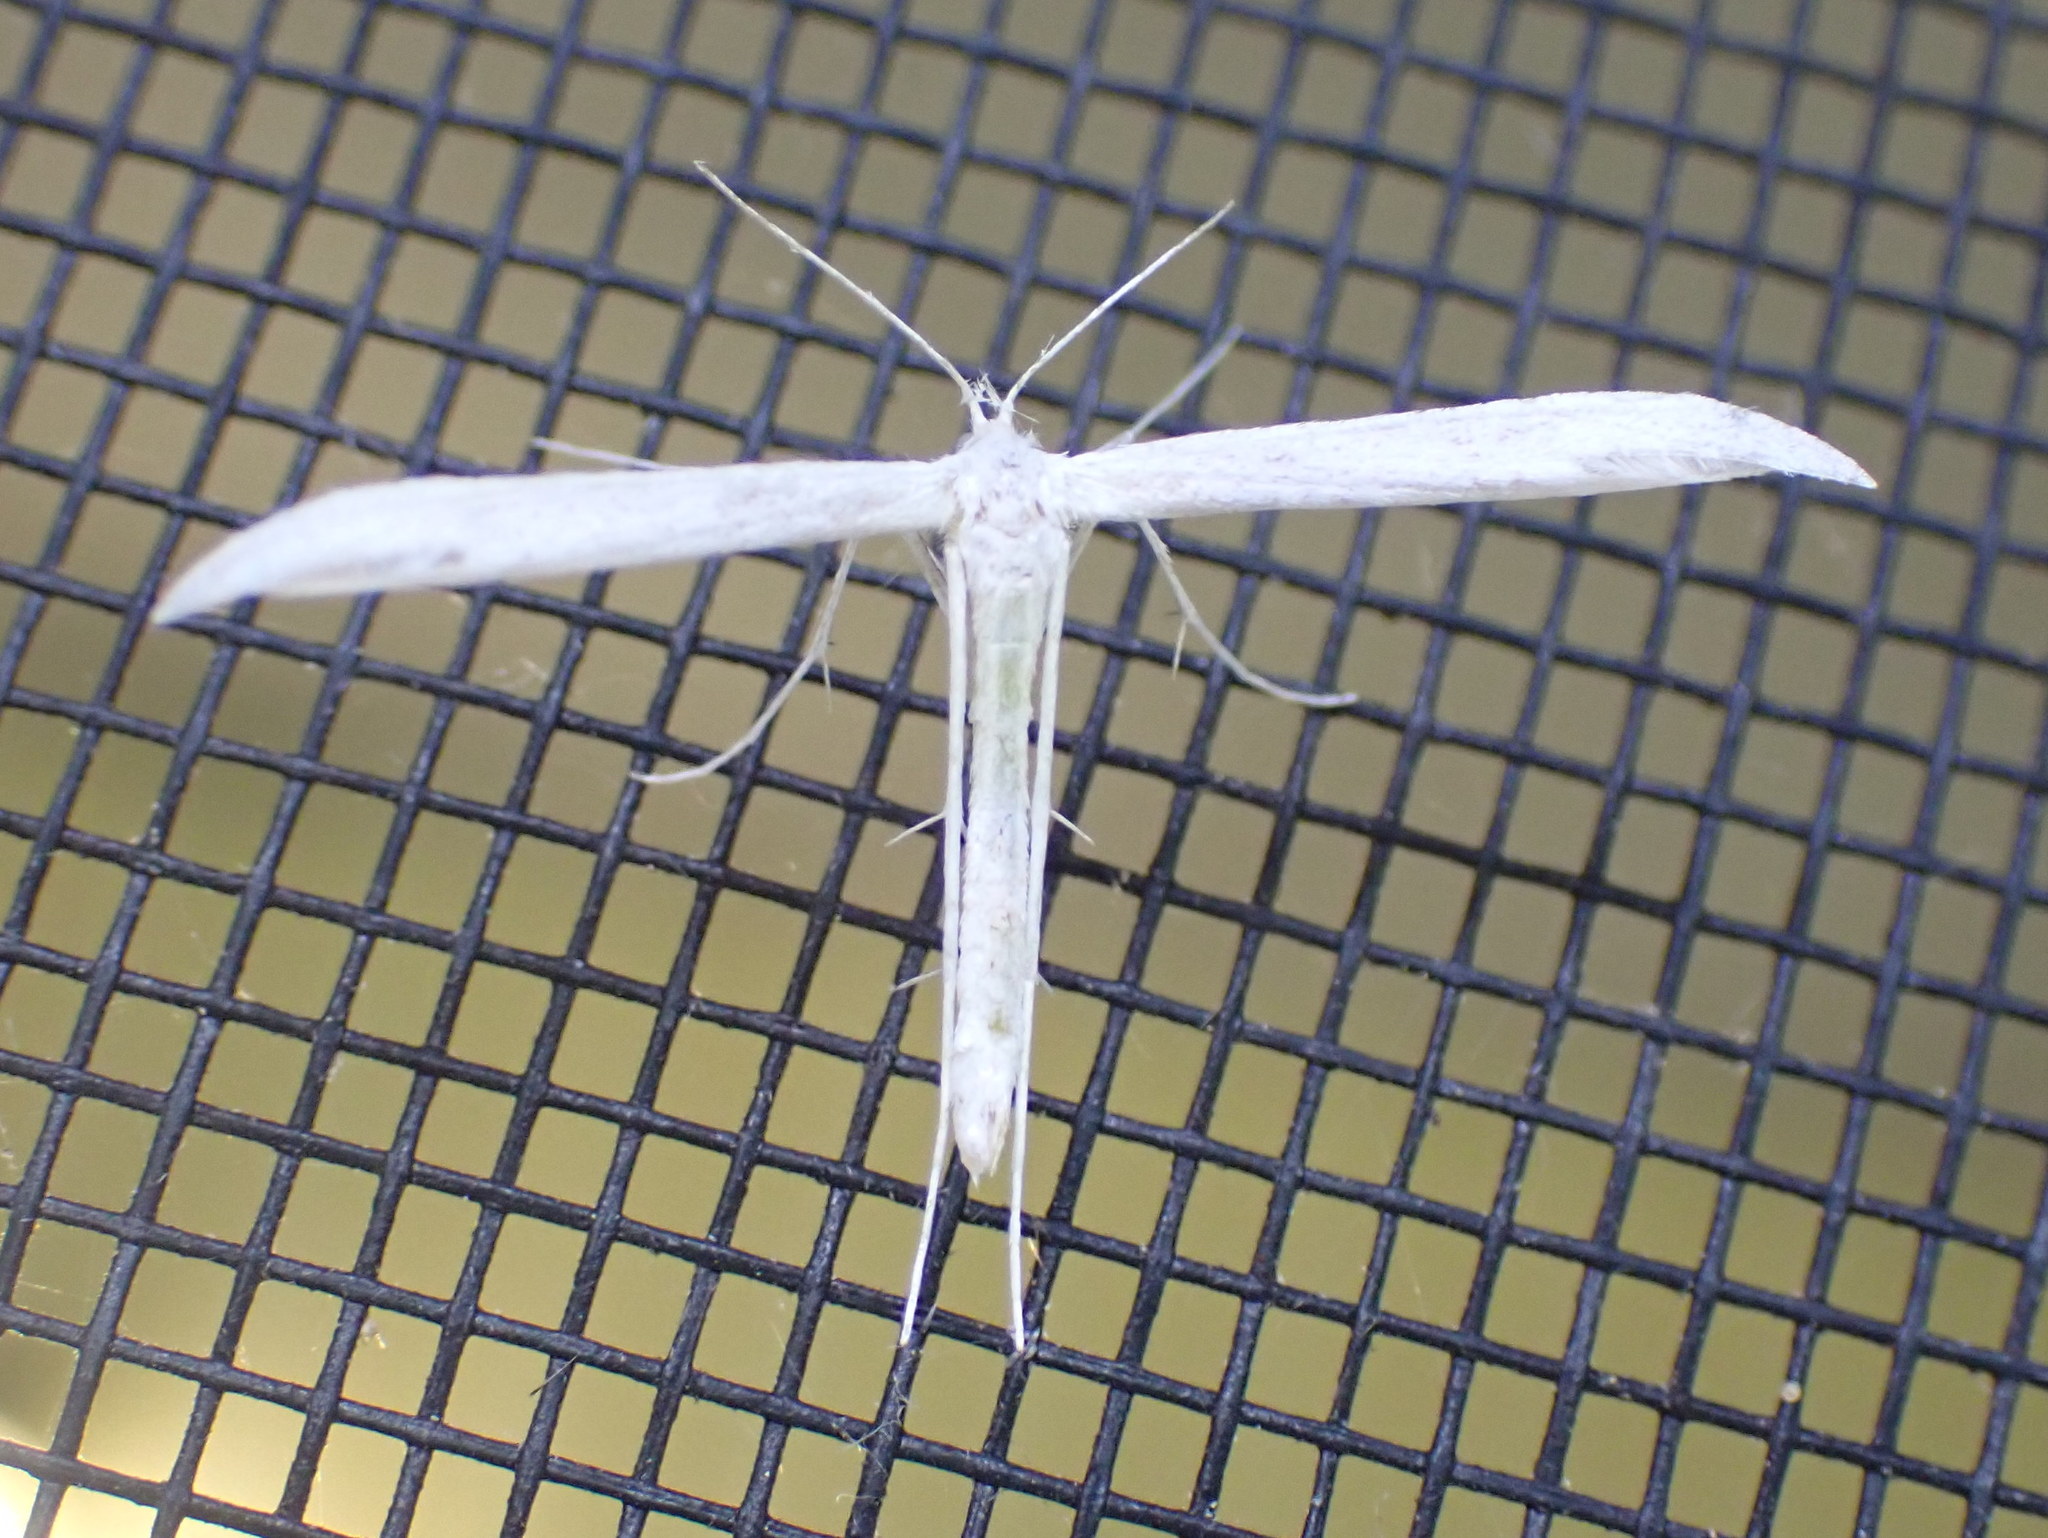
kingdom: Animalia
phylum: Arthropoda
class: Insecta
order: Lepidoptera
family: Pterophoridae
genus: Hellinsia
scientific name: Hellinsia homodactylus
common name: Plain plume moth
